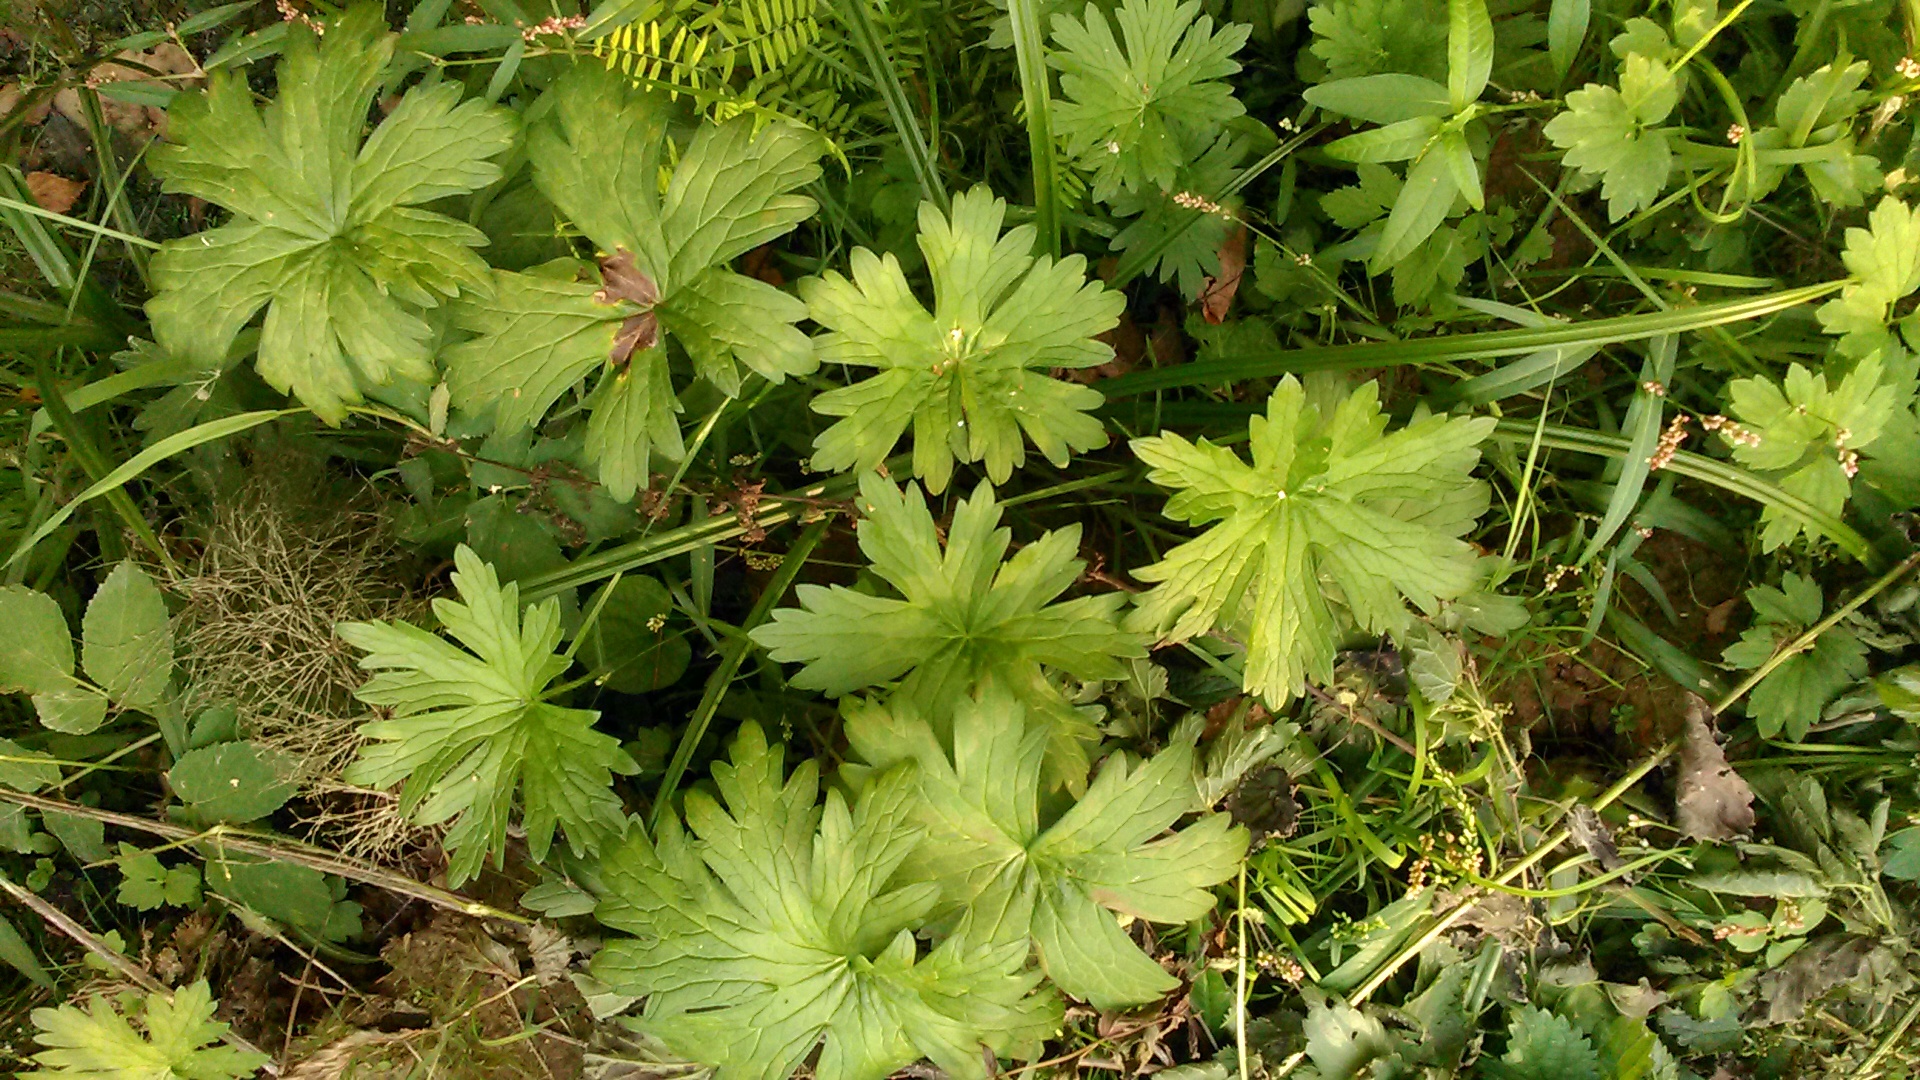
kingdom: Plantae
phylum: Tracheophyta
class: Magnoliopsida
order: Geraniales
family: Geraniaceae
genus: Geranium
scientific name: Geranium palustre
